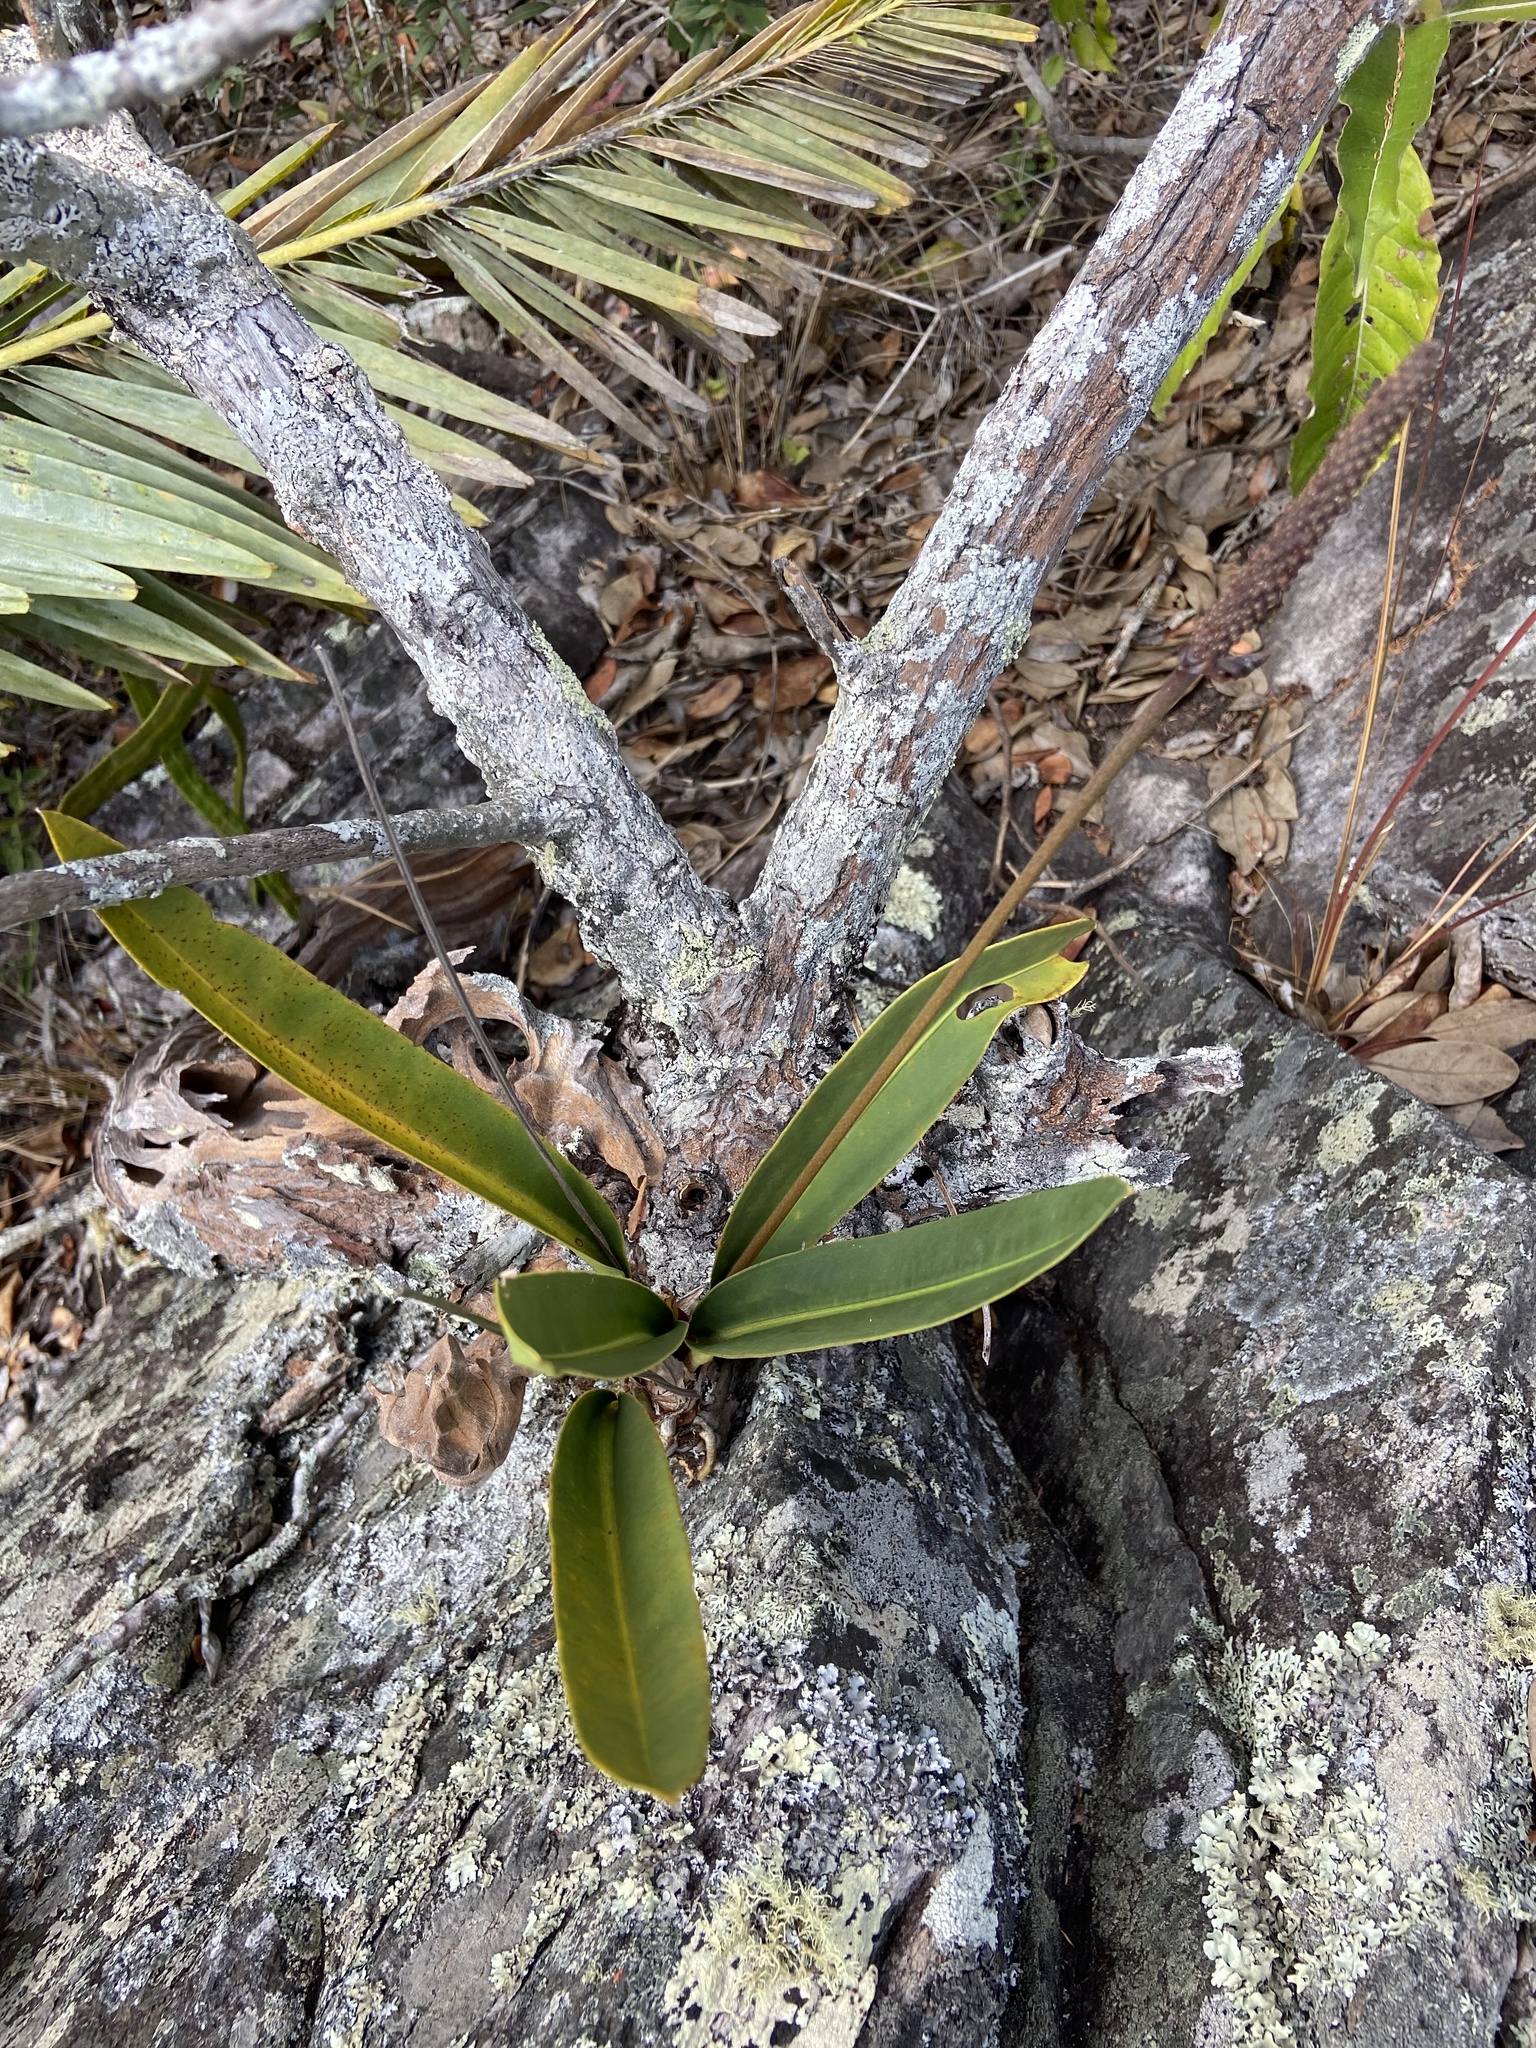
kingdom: Plantae
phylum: Tracheophyta
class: Liliopsida
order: Alismatales
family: Araceae
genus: Anthurium
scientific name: Anthurium minarum
